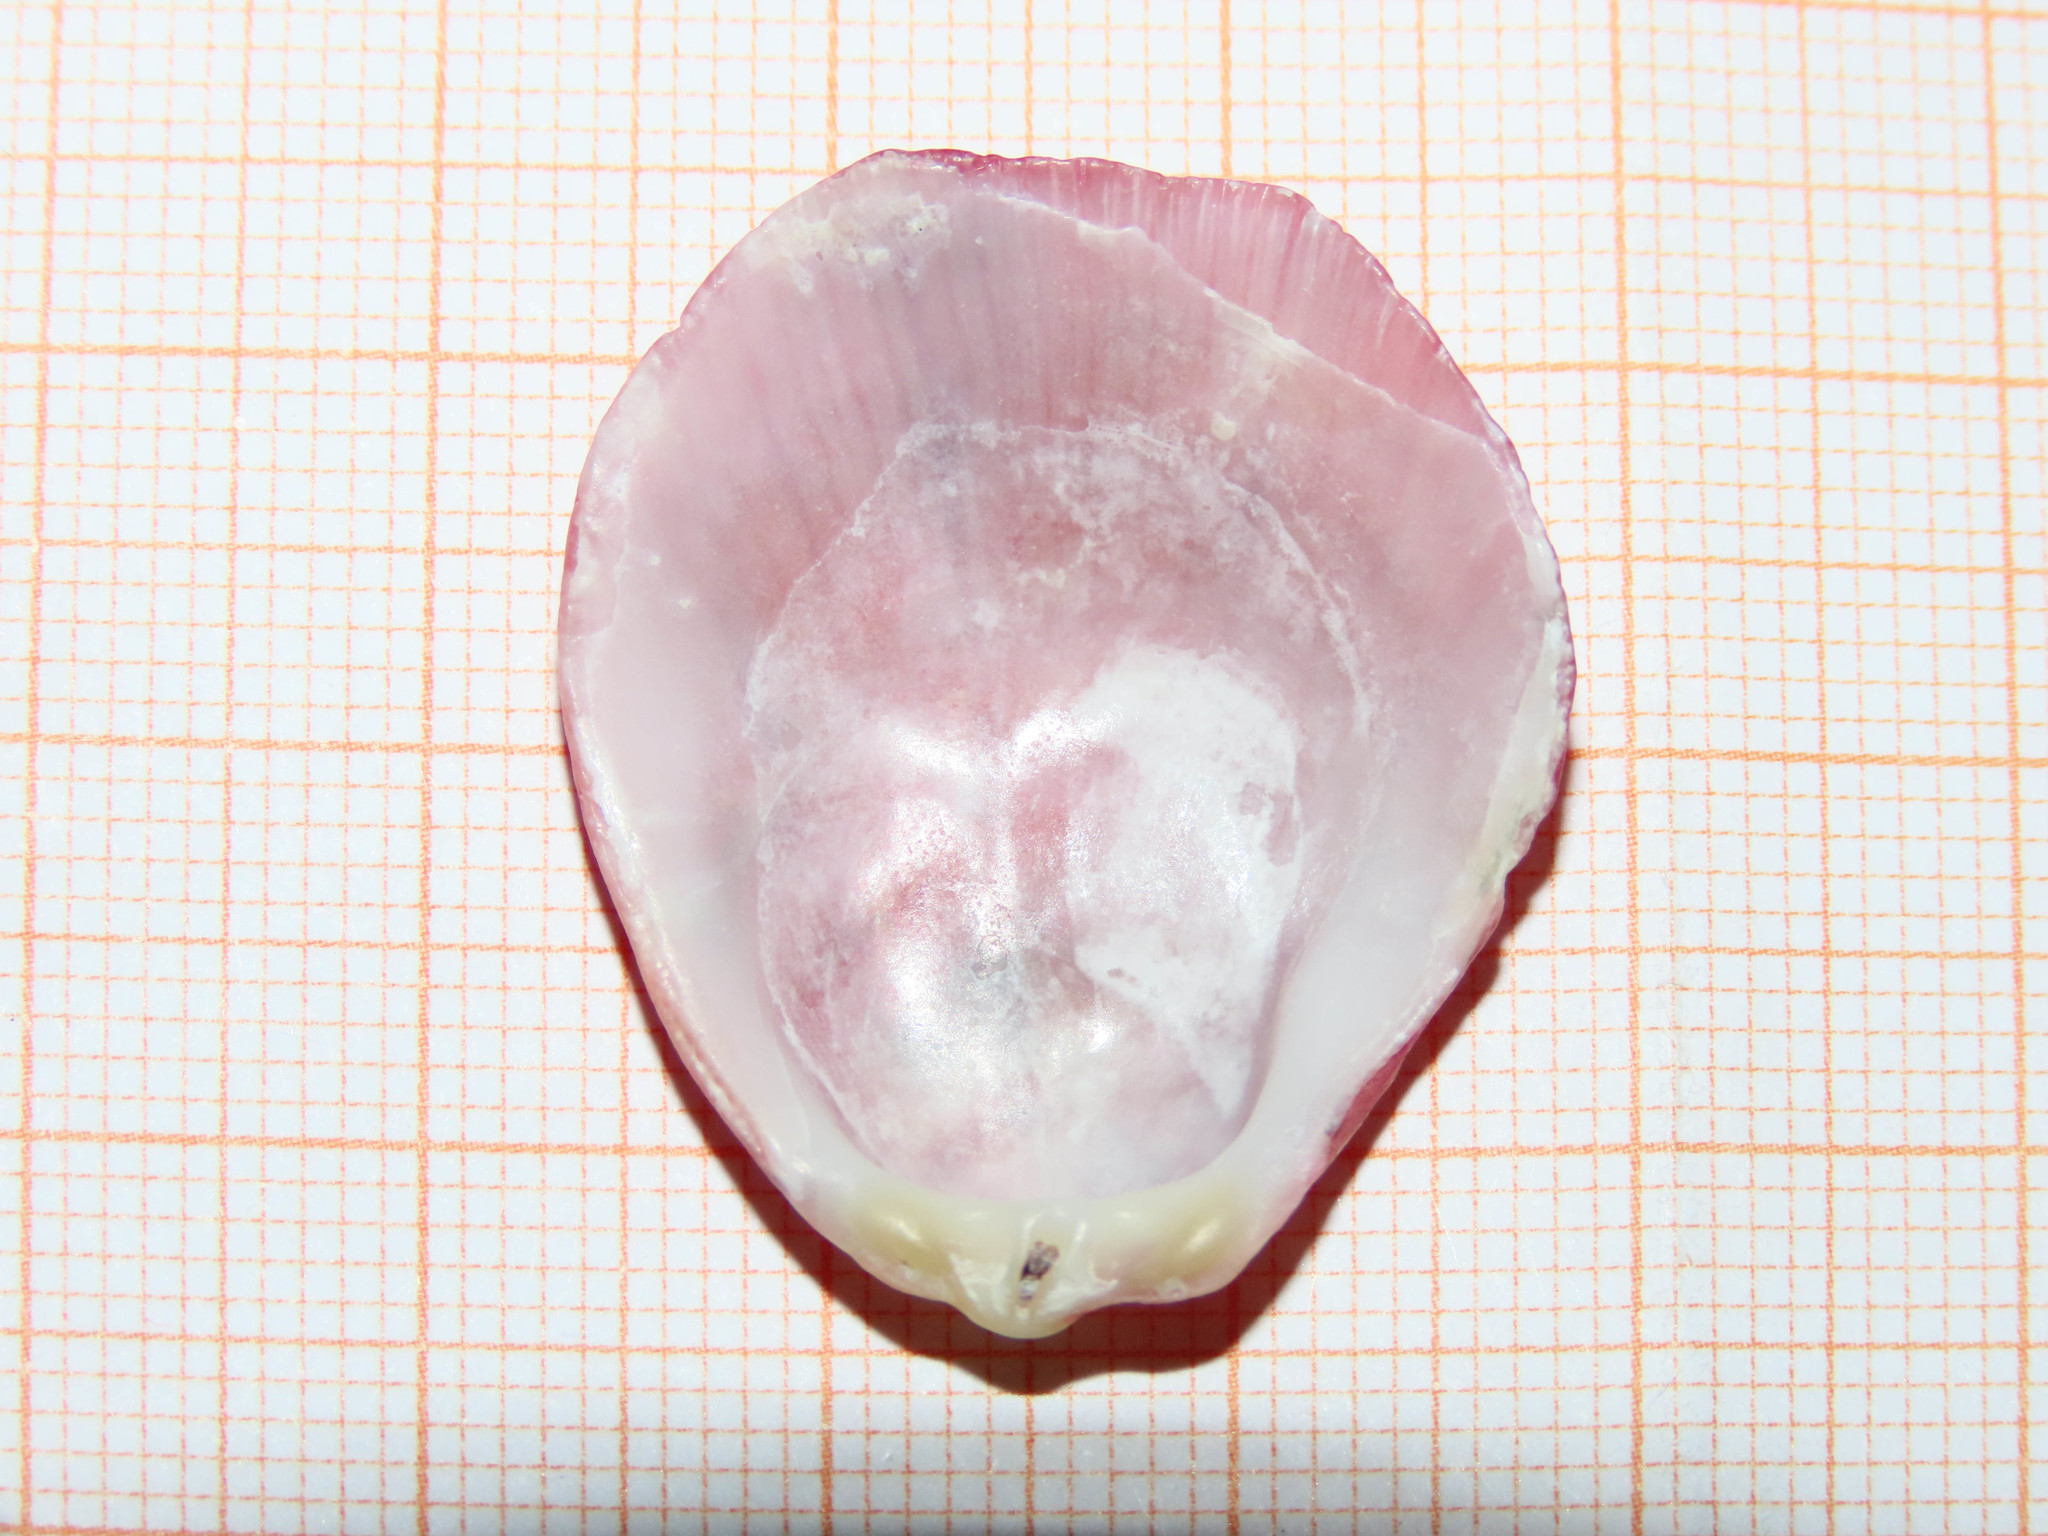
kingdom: Animalia
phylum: Mollusca
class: Bivalvia
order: Pectinida
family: Spondylidae
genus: Spondylus
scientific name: Spondylus gaederopus
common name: European thorny oyster
